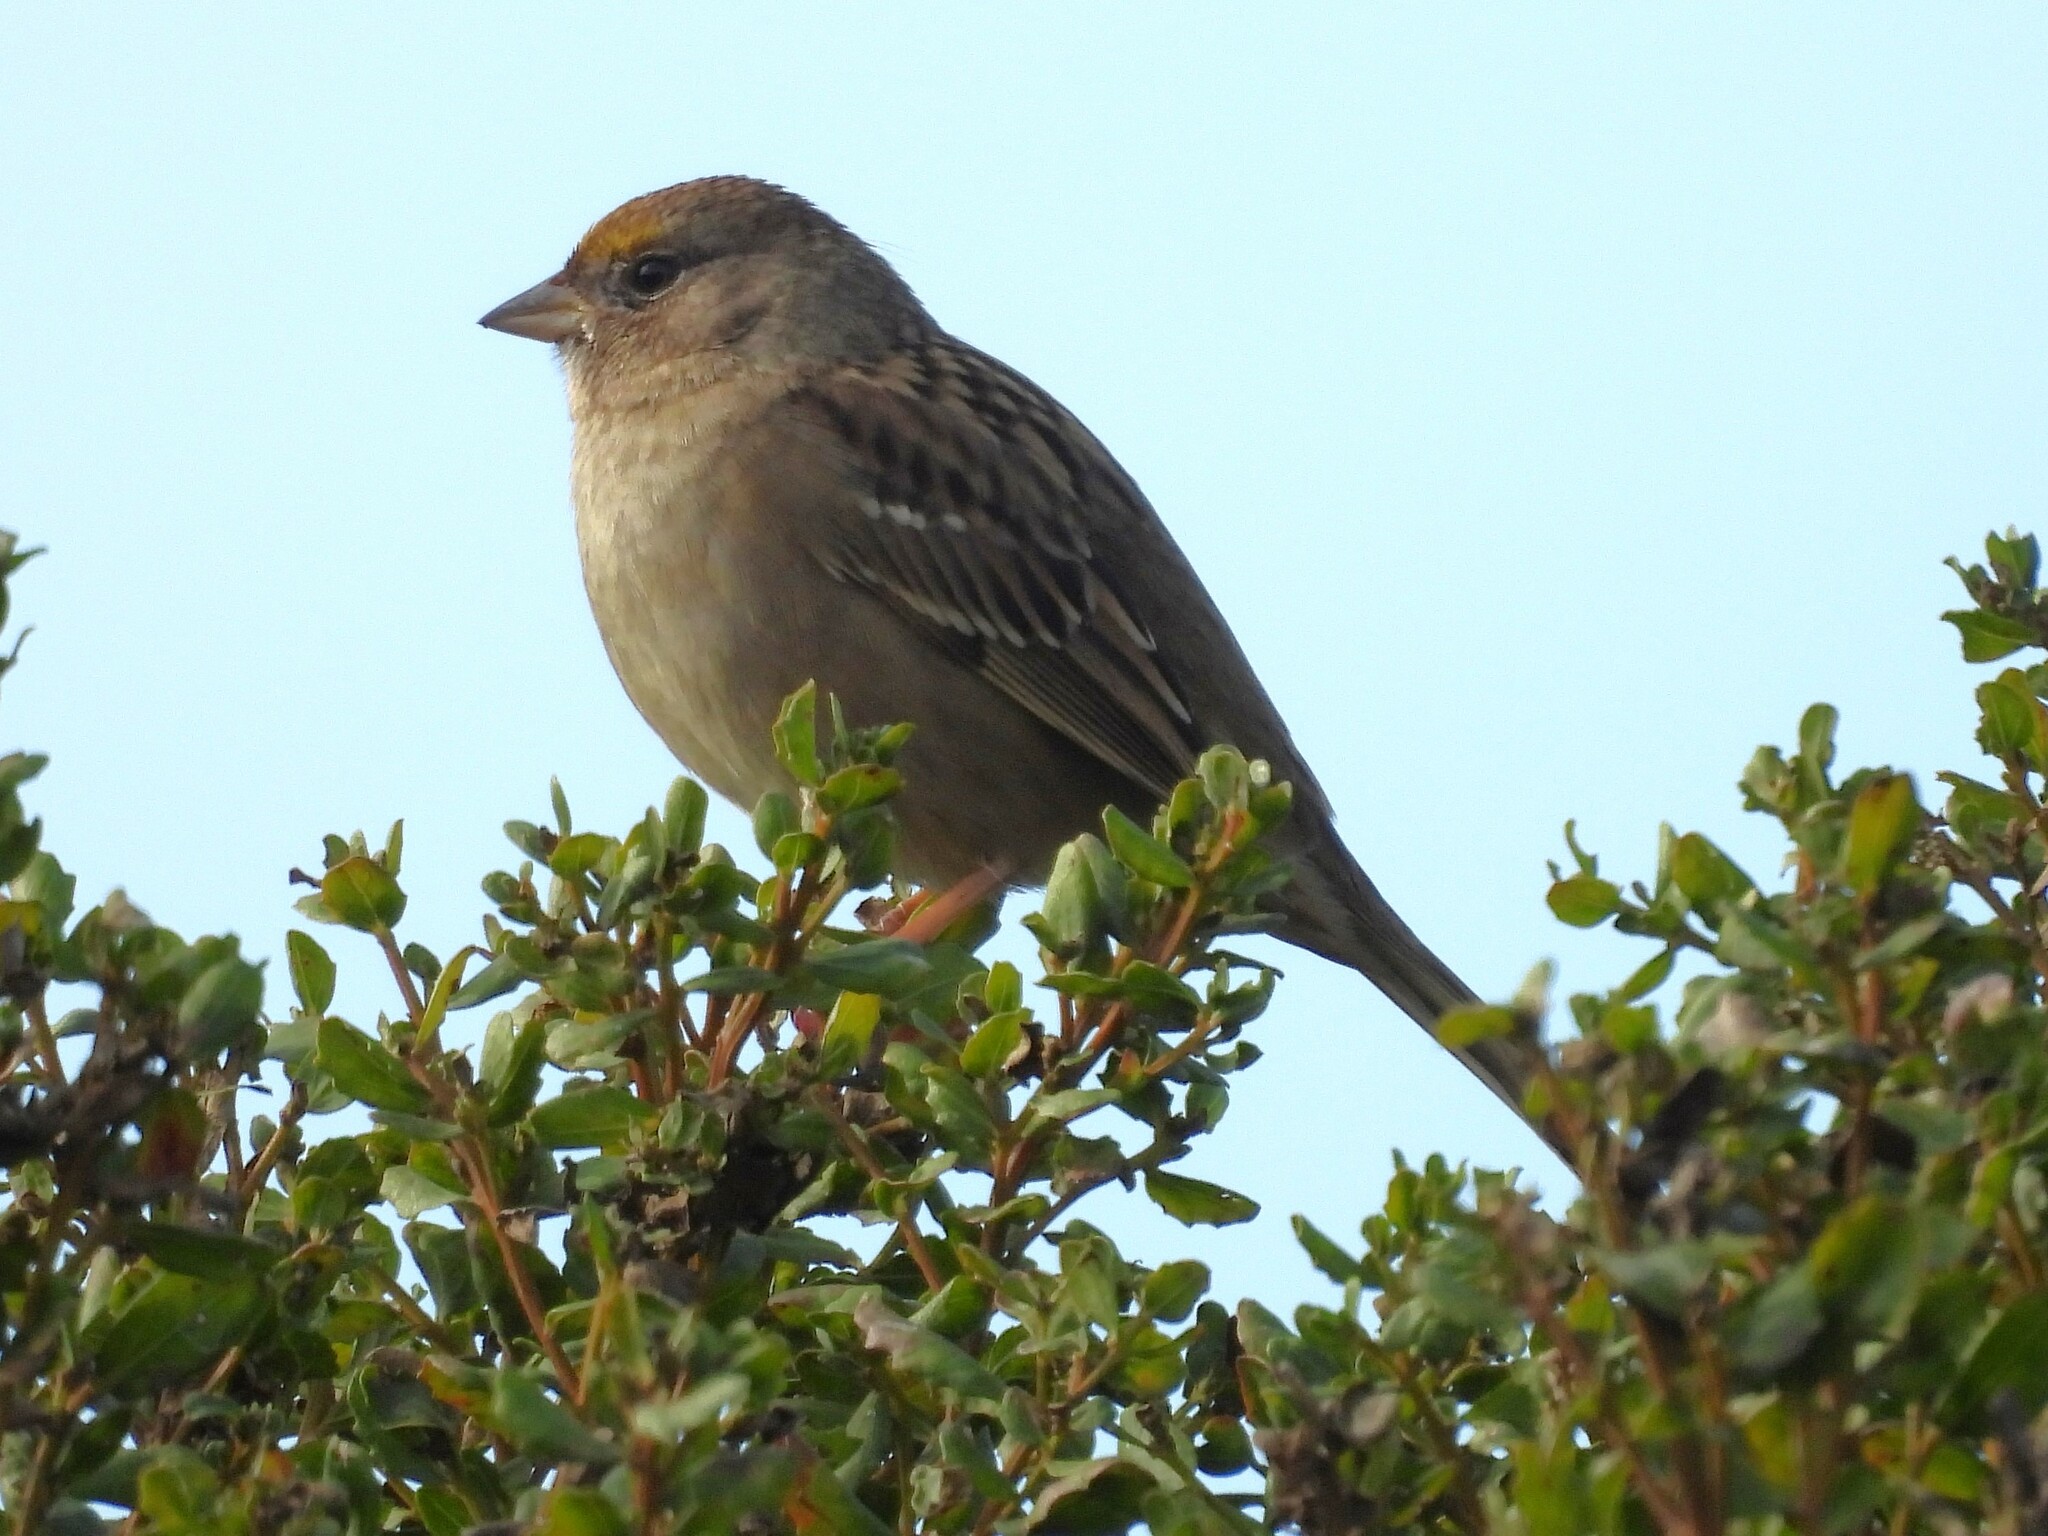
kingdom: Animalia
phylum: Chordata
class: Aves
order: Passeriformes
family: Passerellidae
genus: Zonotrichia
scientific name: Zonotrichia atricapilla
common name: Golden-crowned sparrow
